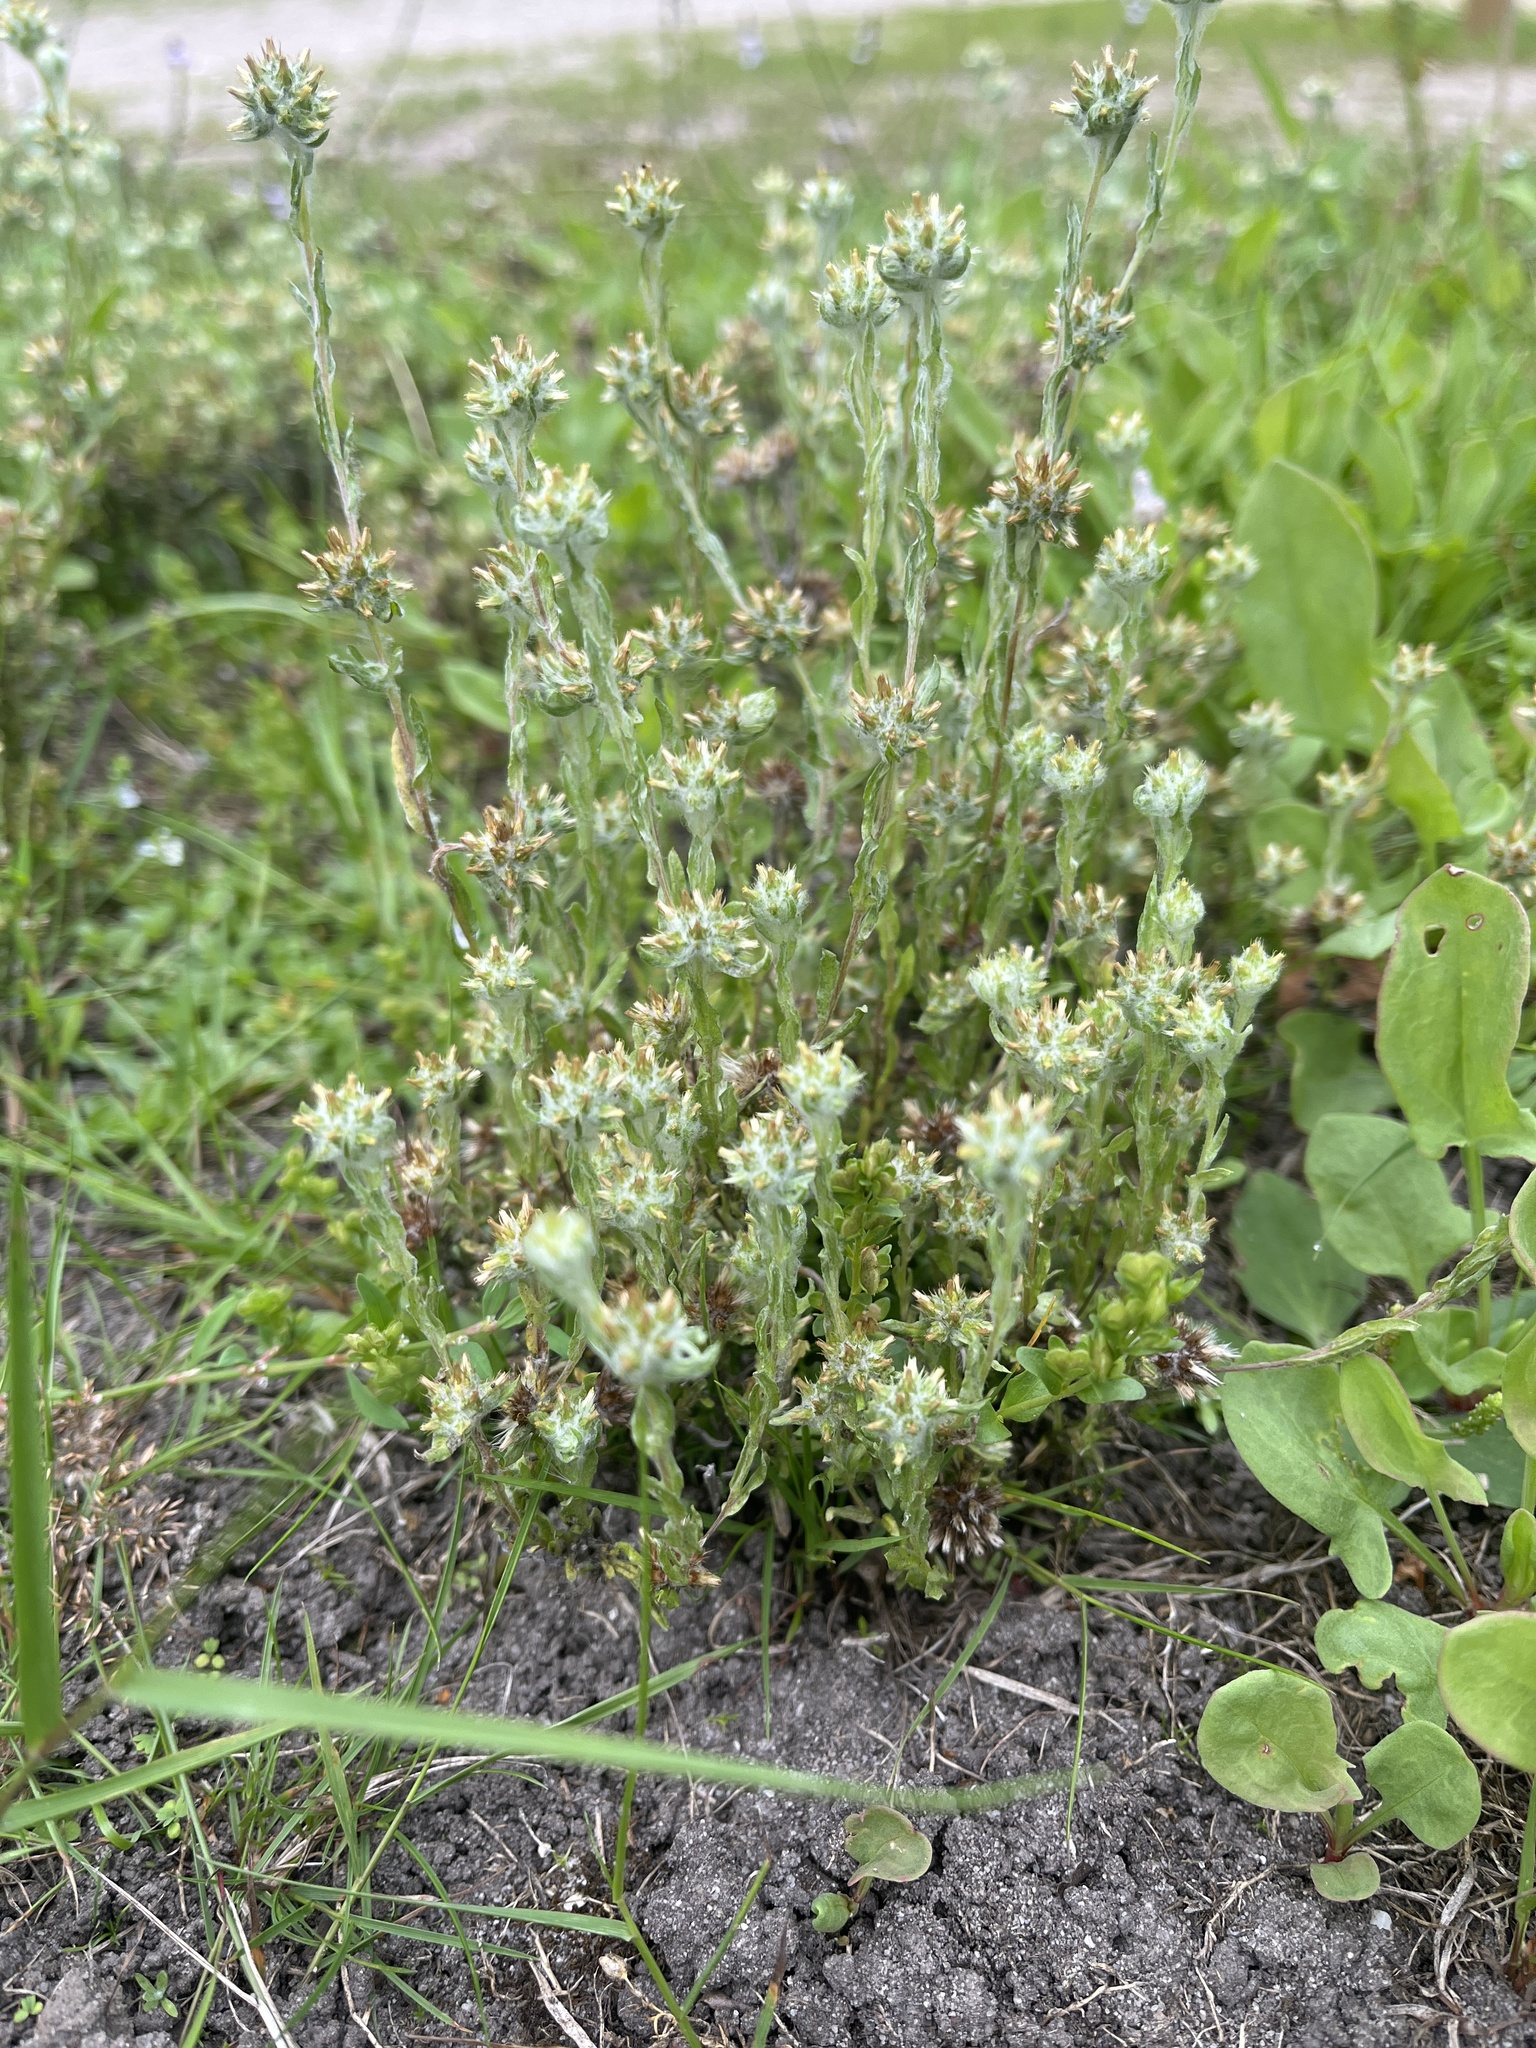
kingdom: Plantae
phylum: Tracheophyta
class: Magnoliopsida
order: Asterales
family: Asteraceae
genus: Filago
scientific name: Filago germanica
